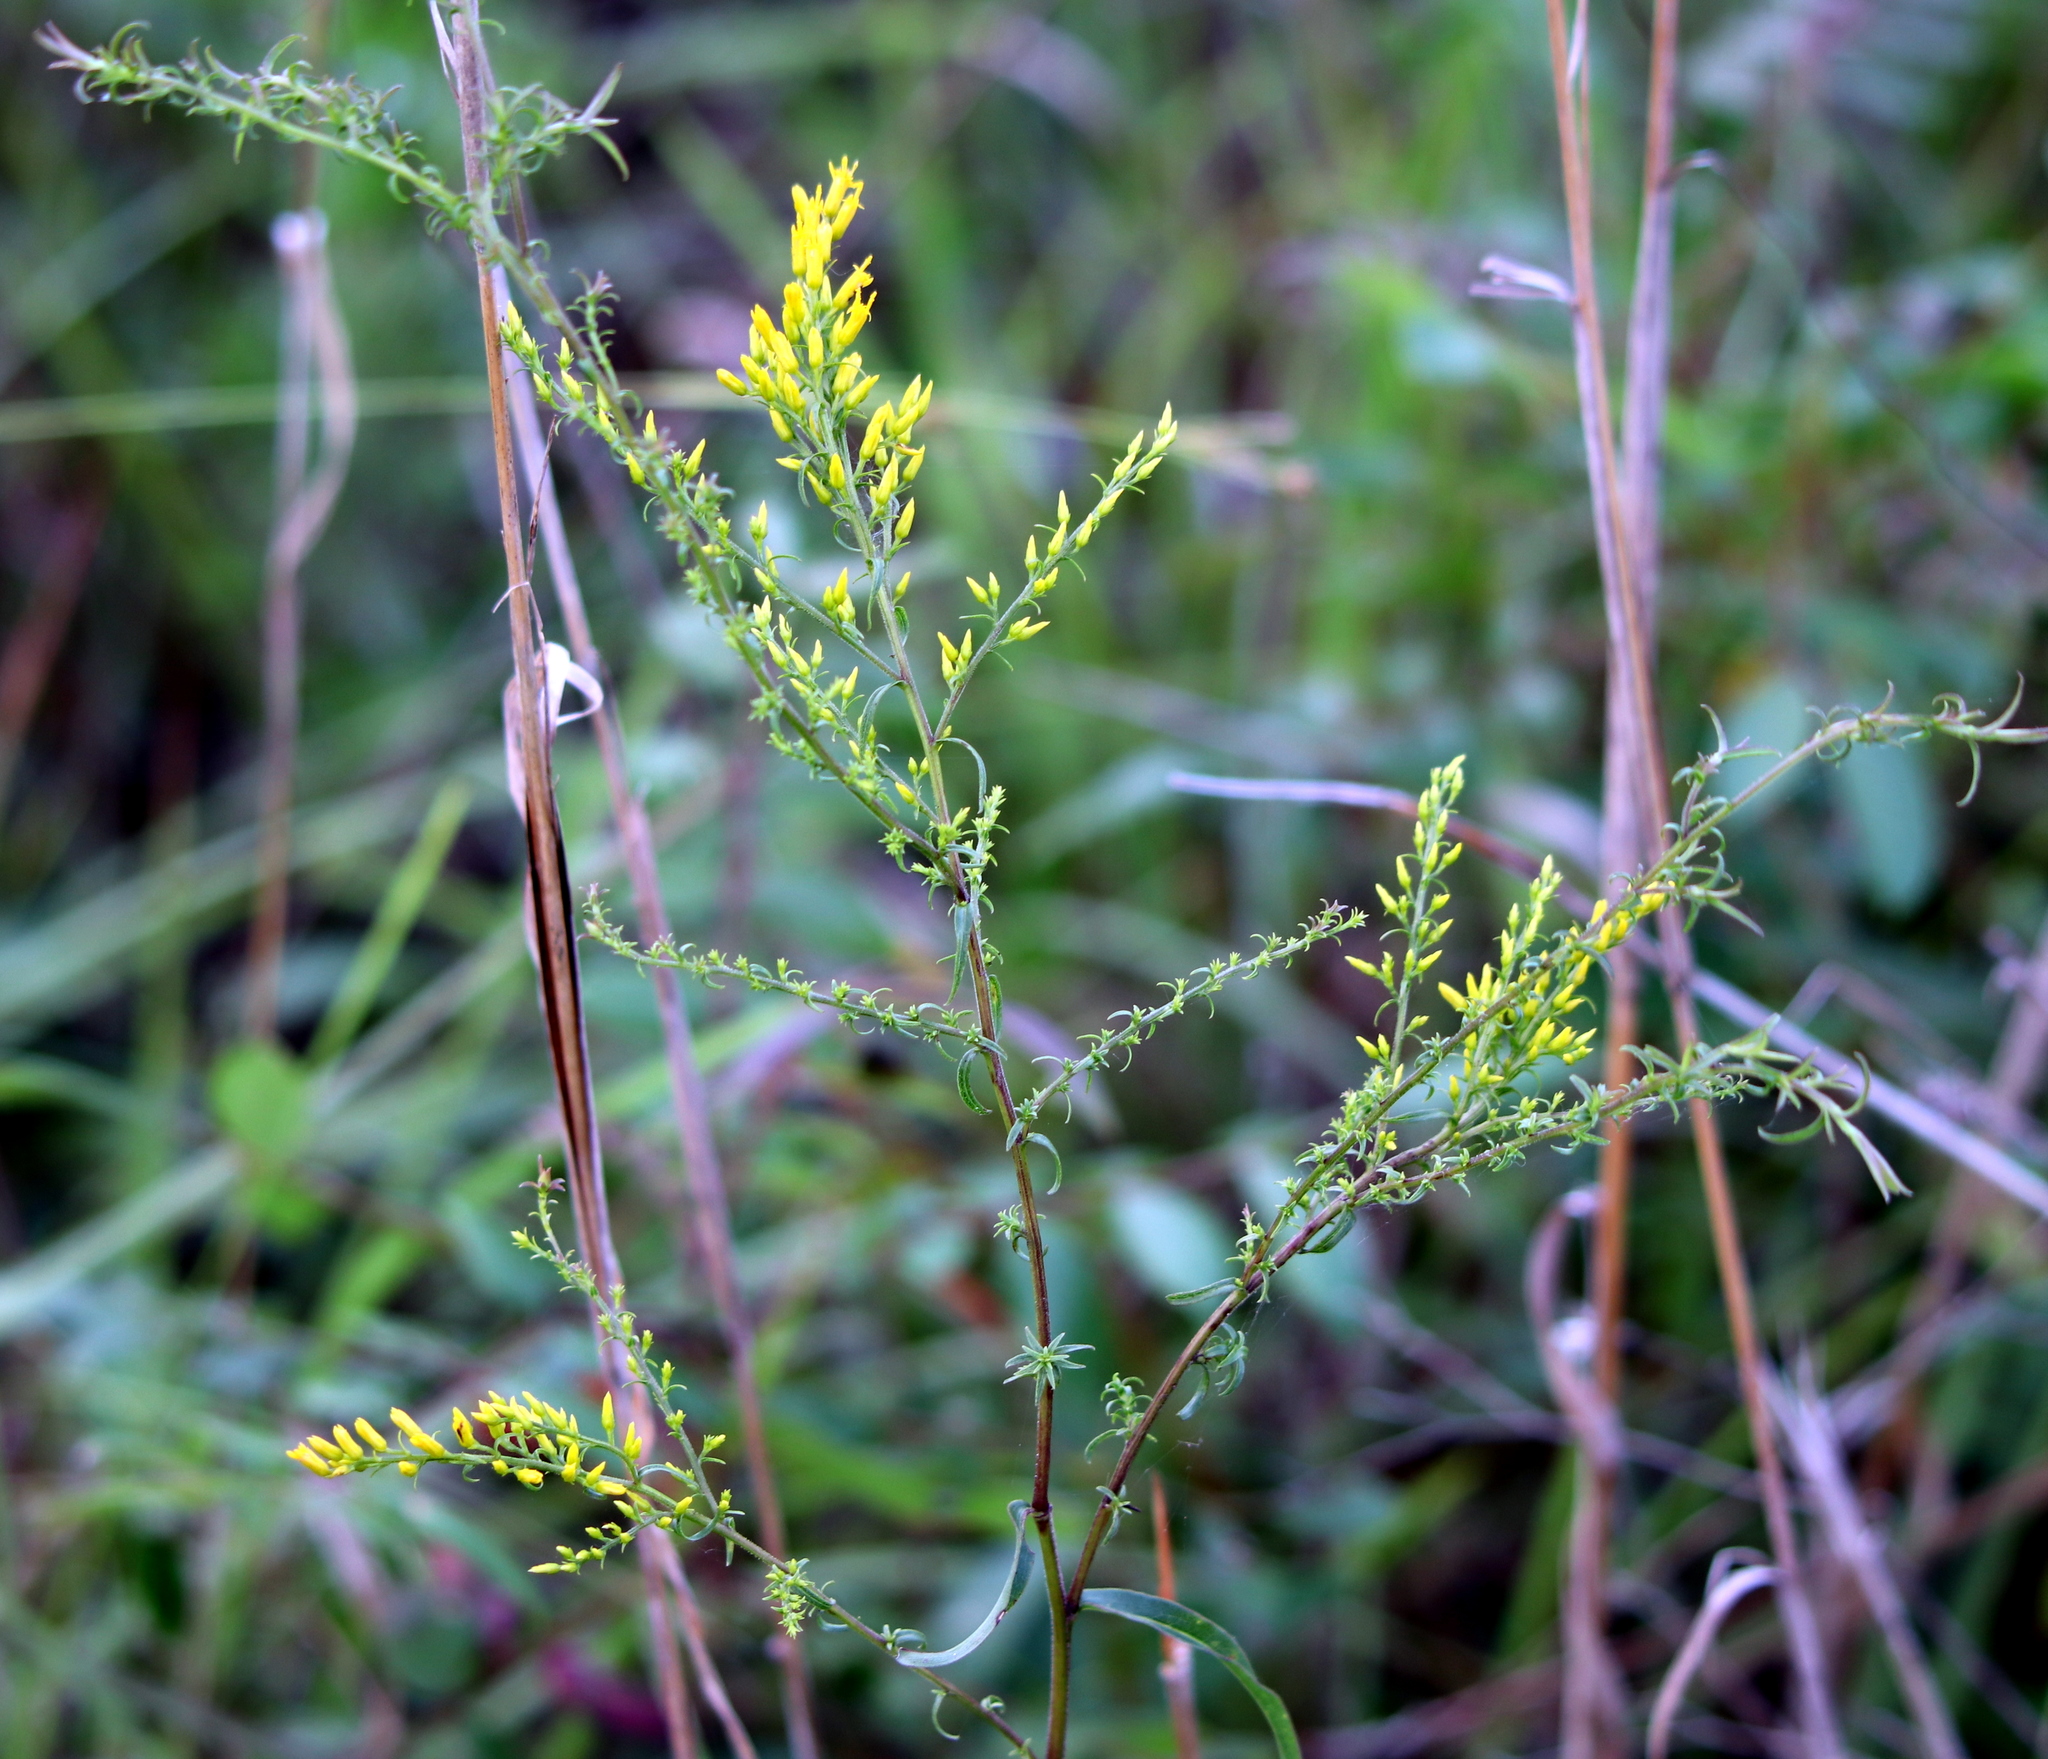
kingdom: Plantae
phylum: Tracheophyta
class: Magnoliopsida
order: Asterales
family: Asteraceae
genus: Solidago
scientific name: Solidago odora
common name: Anise-scented goldenrod
